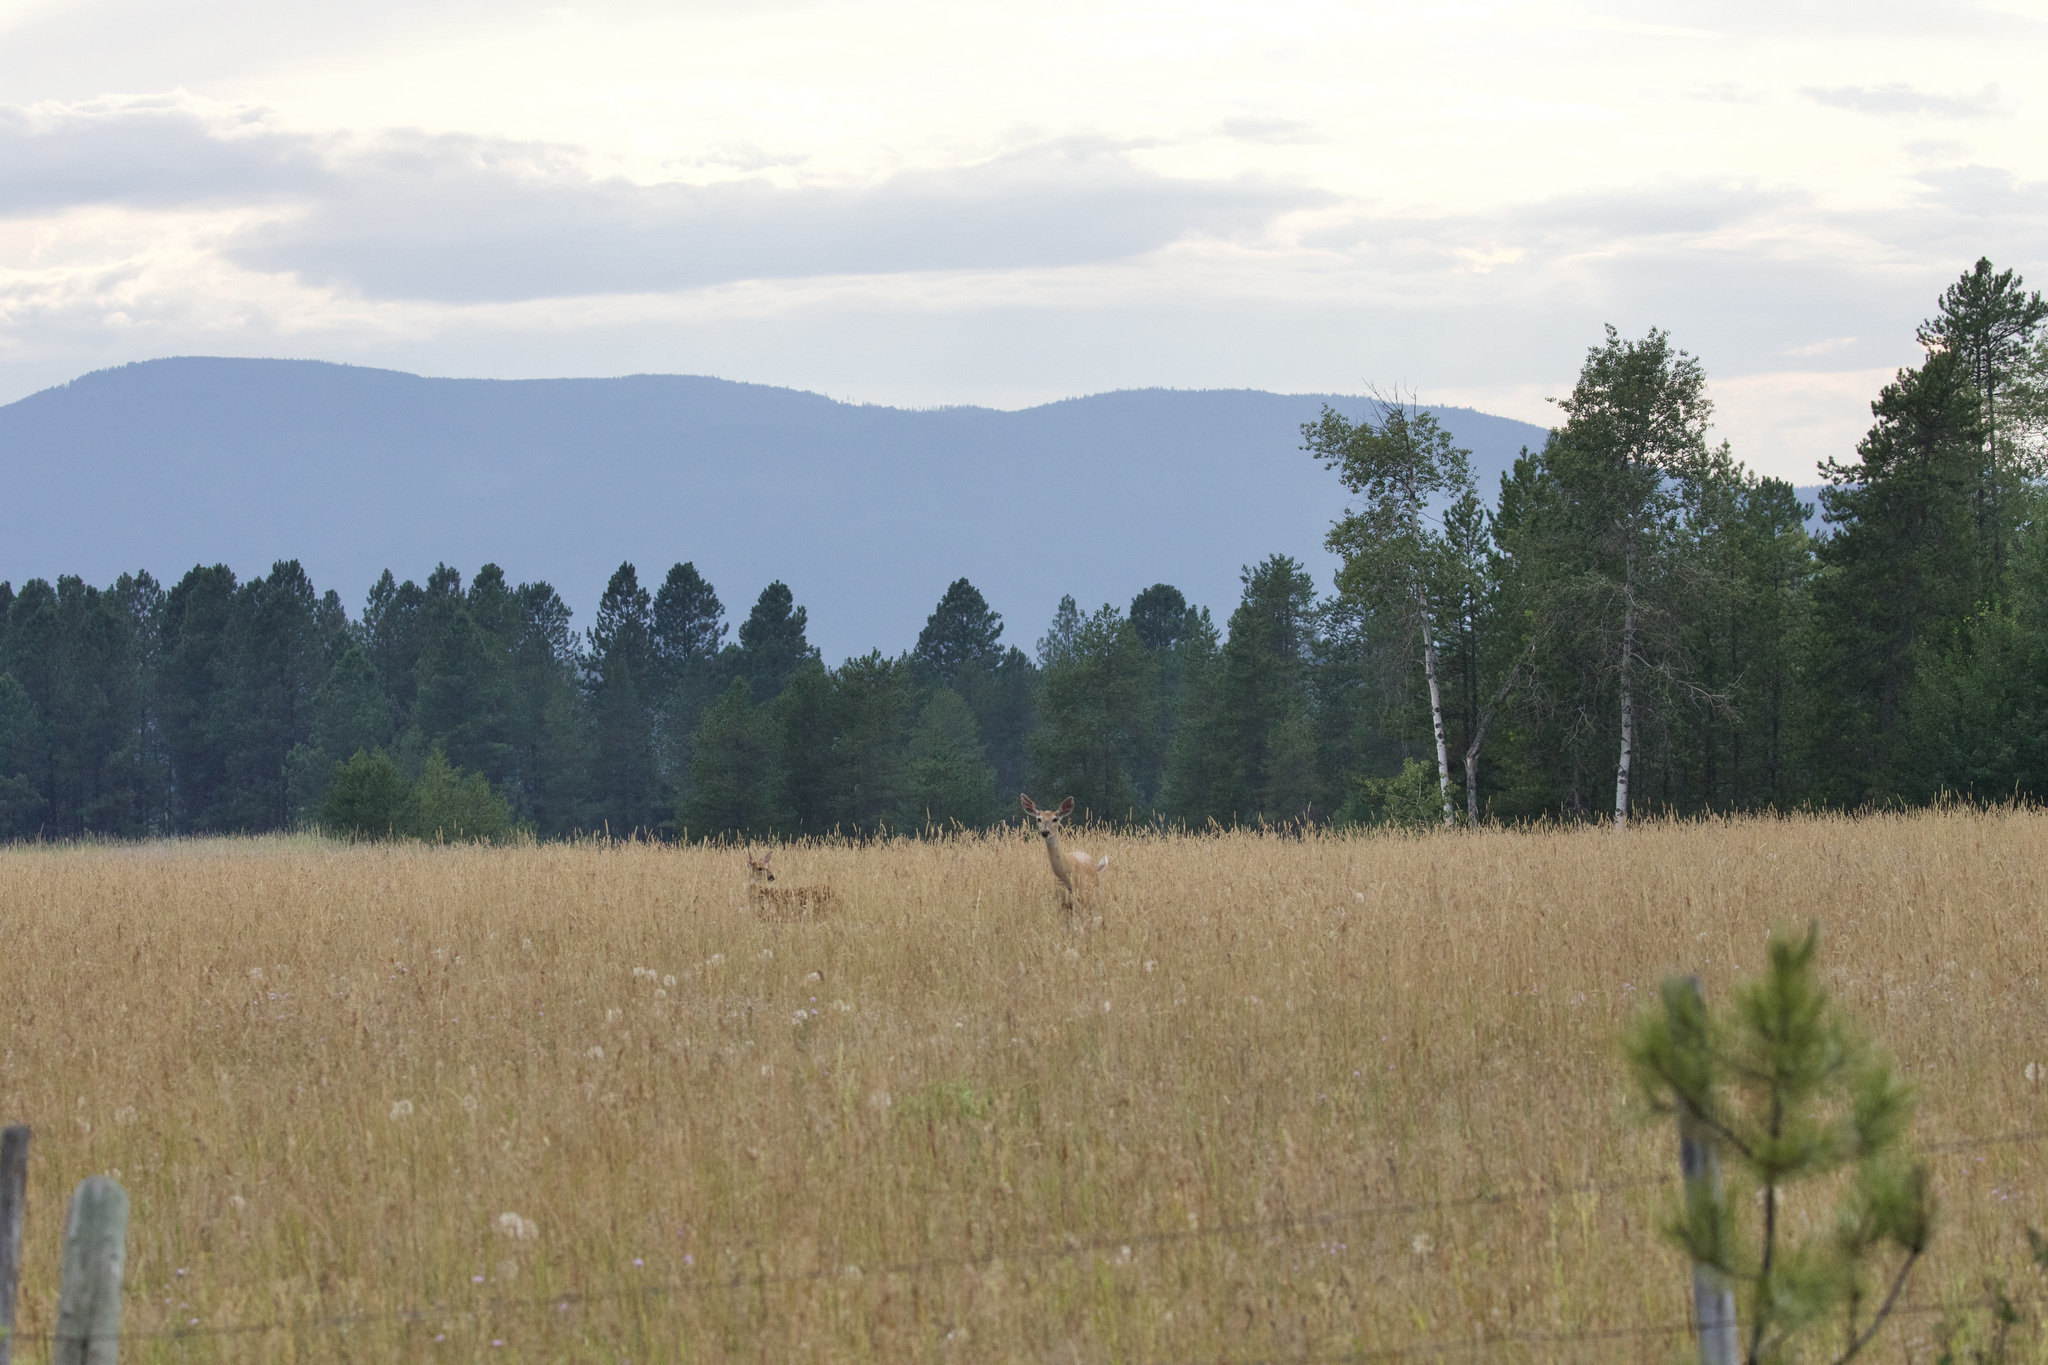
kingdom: Animalia
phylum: Chordata
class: Mammalia
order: Artiodactyla
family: Cervidae
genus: Odocoileus
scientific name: Odocoileus virginianus
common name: White-tailed deer
